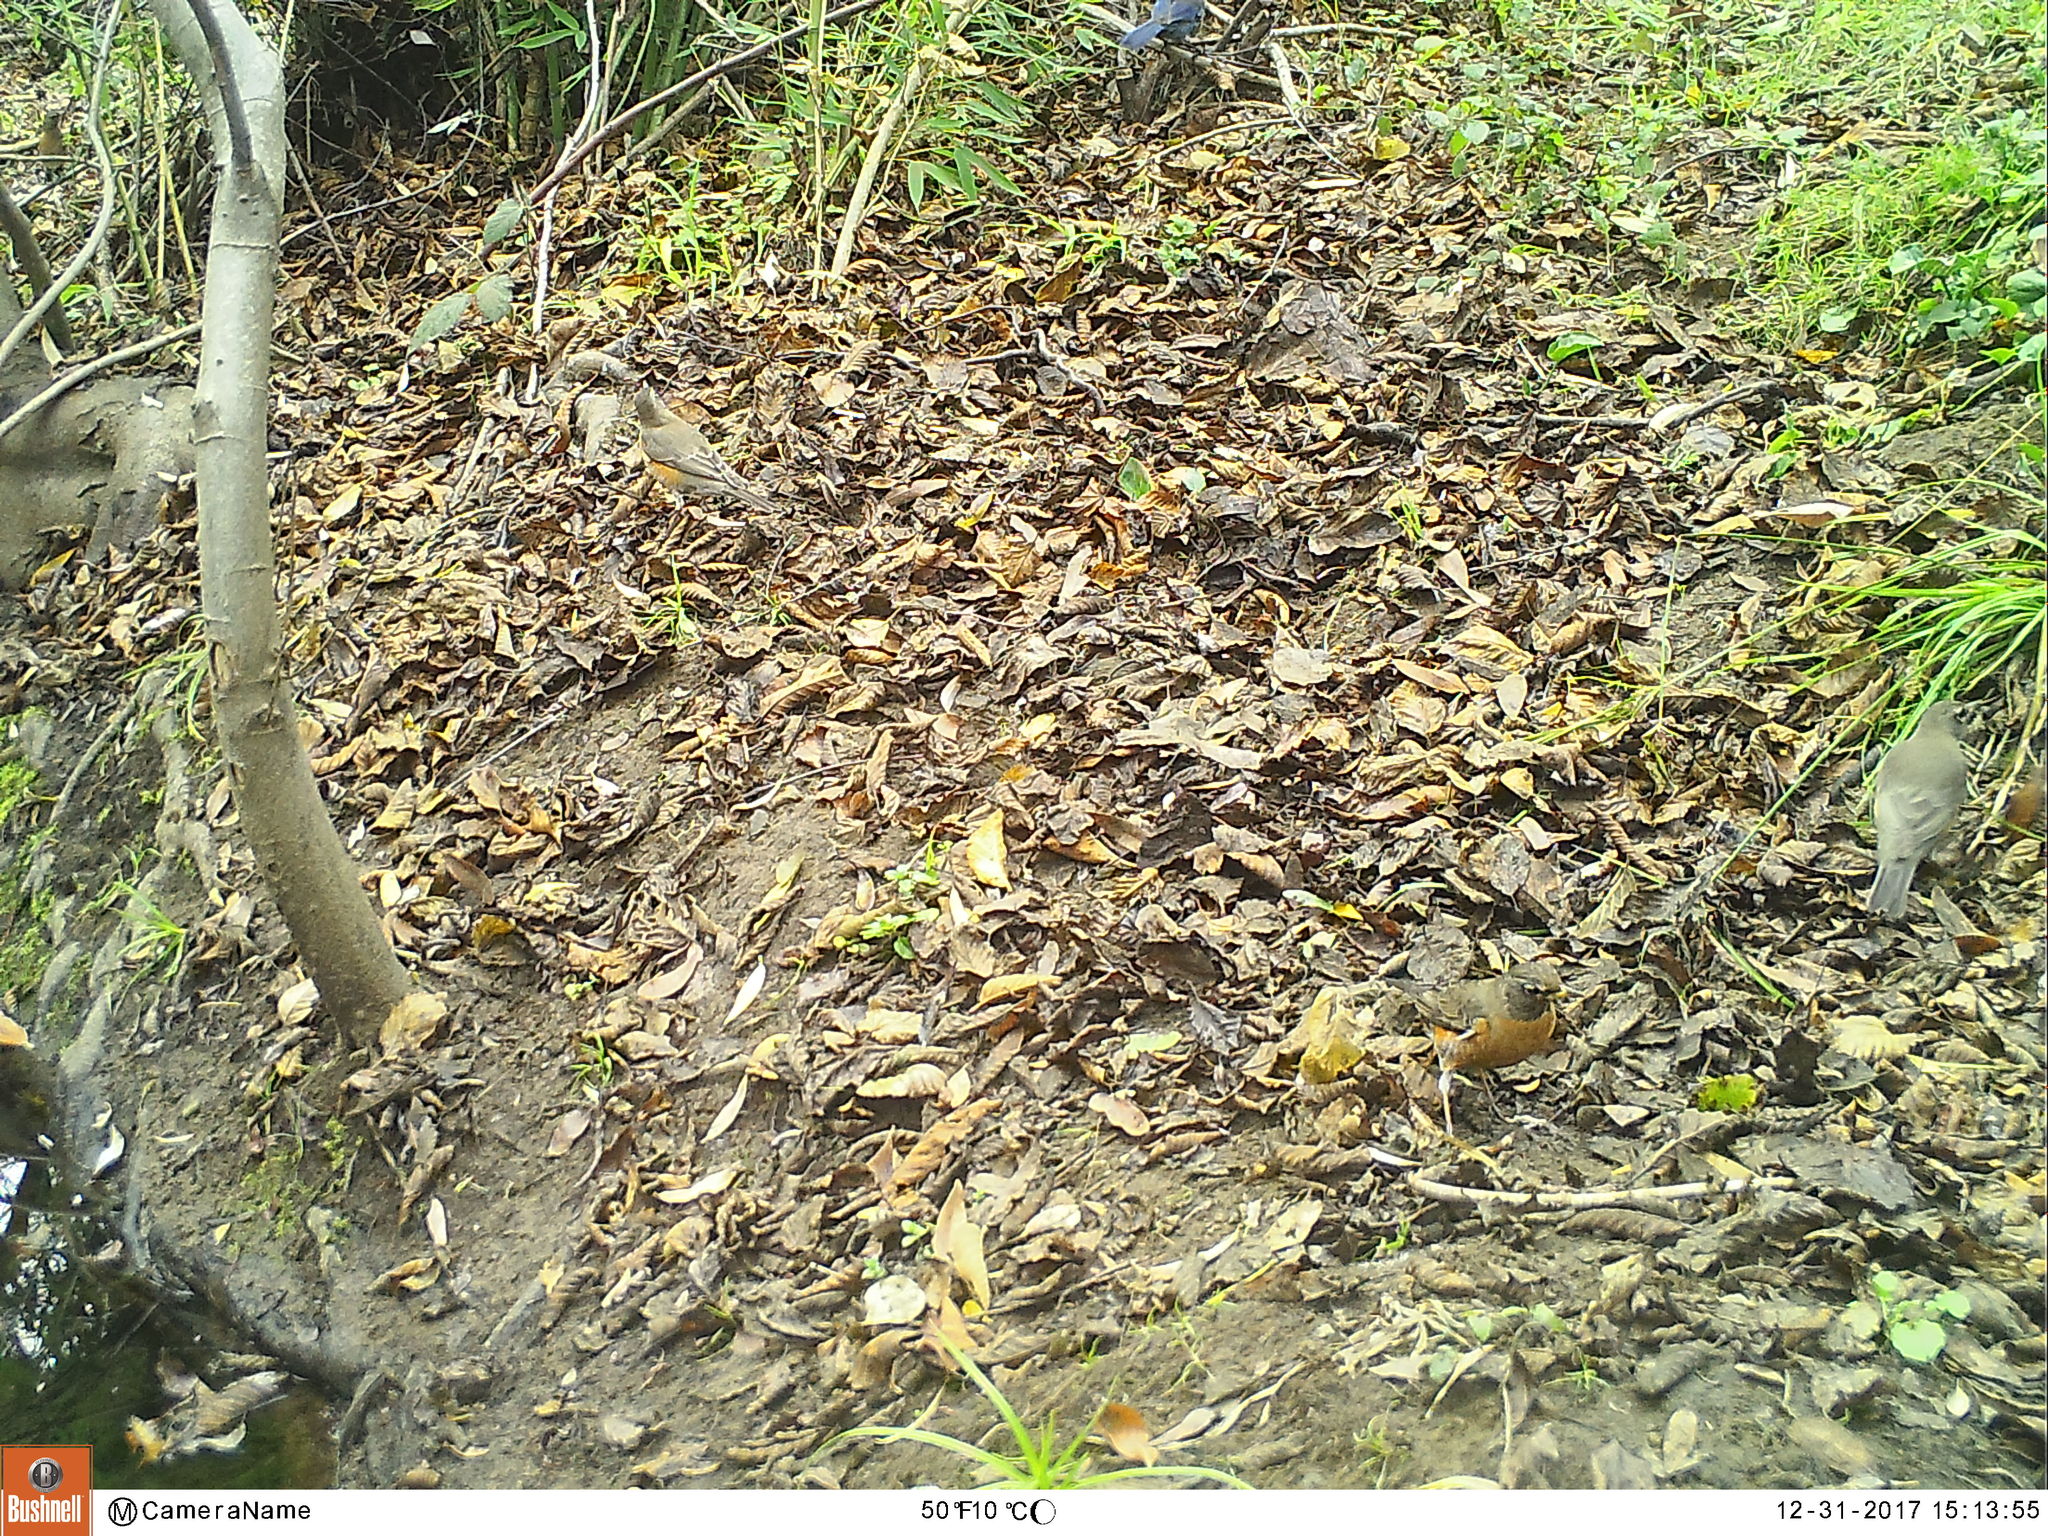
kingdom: Animalia
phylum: Chordata
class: Aves
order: Passeriformes
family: Turdidae
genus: Turdus
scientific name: Turdus migratorius
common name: American robin
